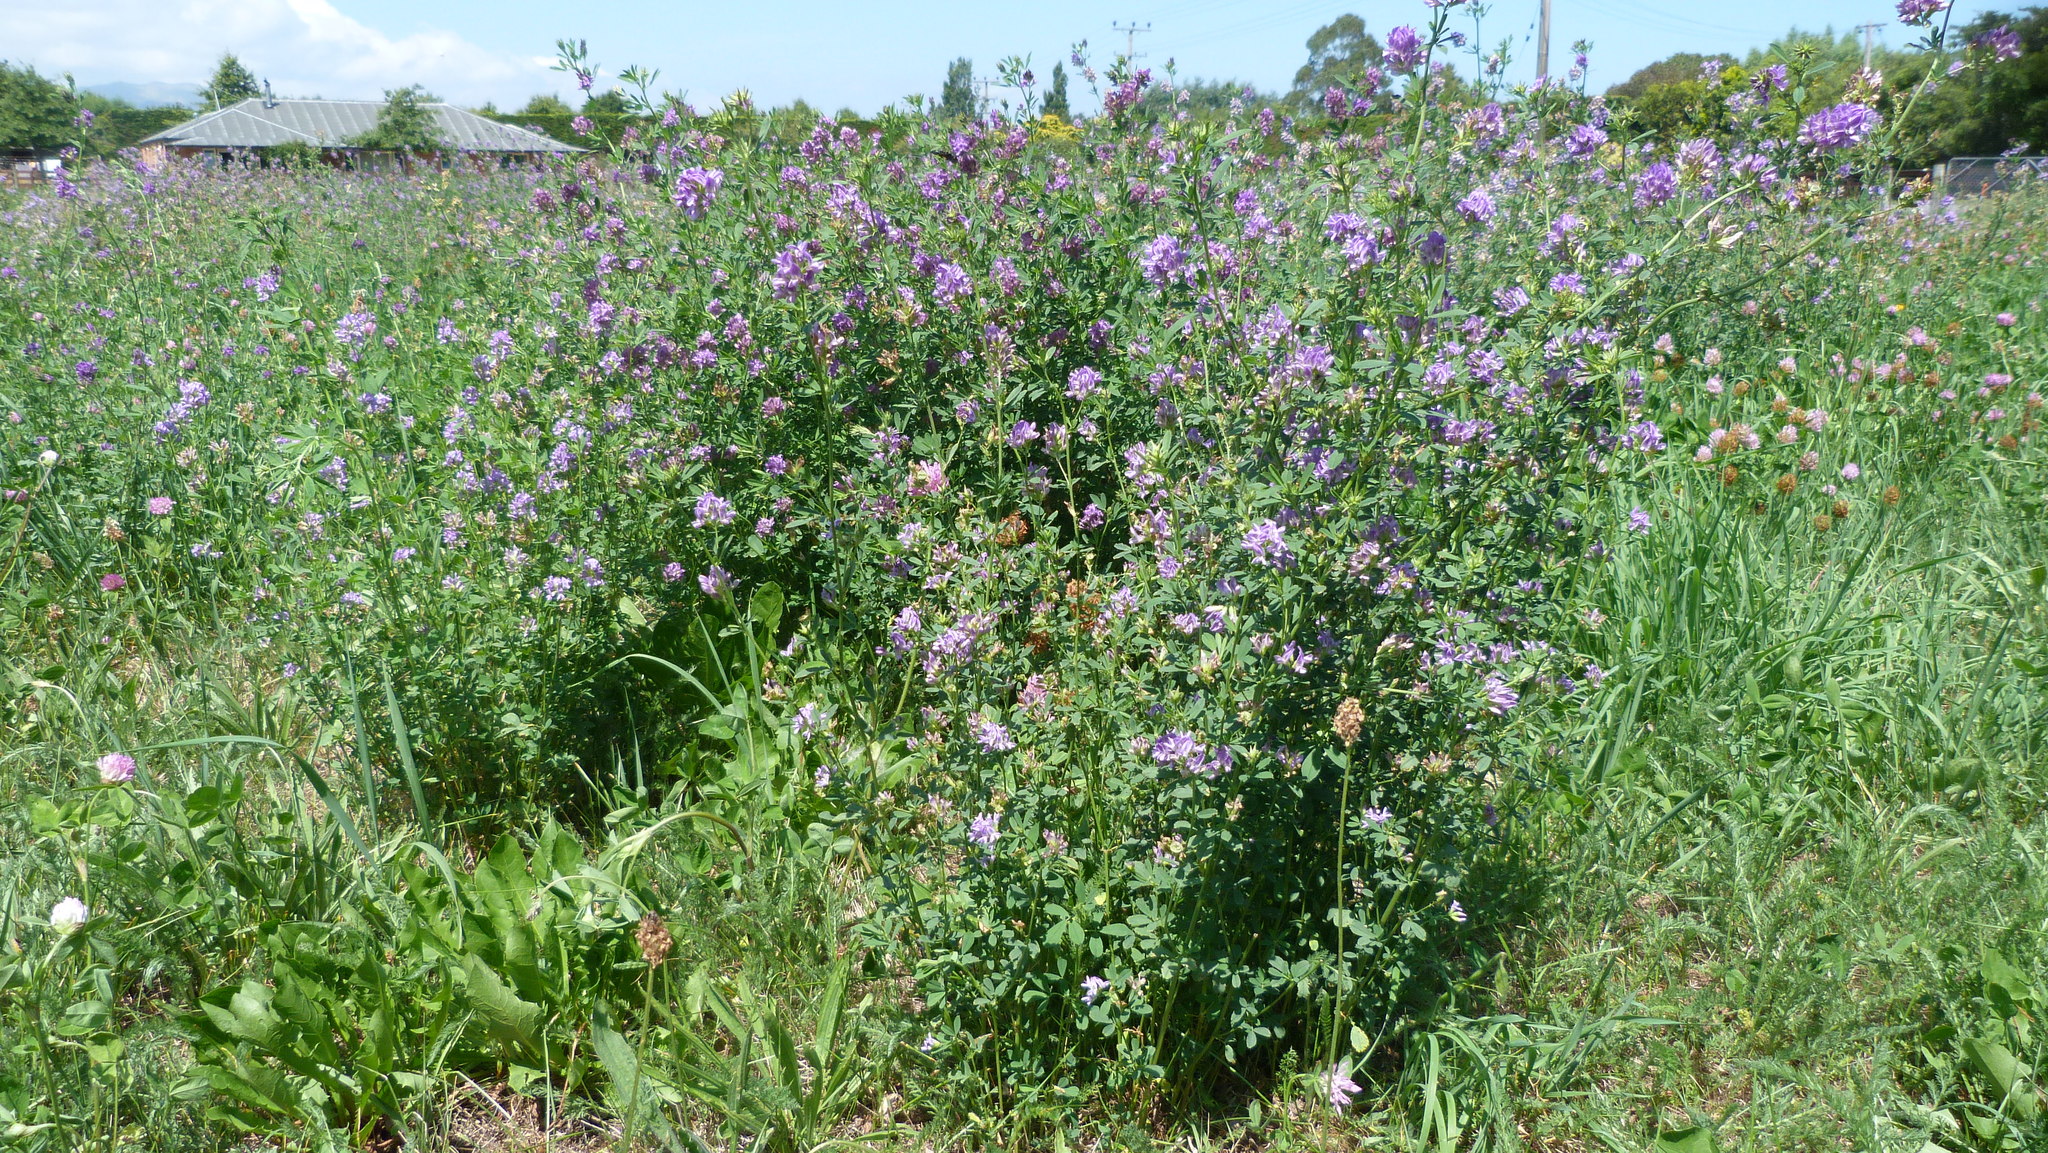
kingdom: Plantae
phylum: Tracheophyta
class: Magnoliopsida
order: Fabales
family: Fabaceae
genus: Medicago
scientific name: Medicago sativa
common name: Alfalfa
